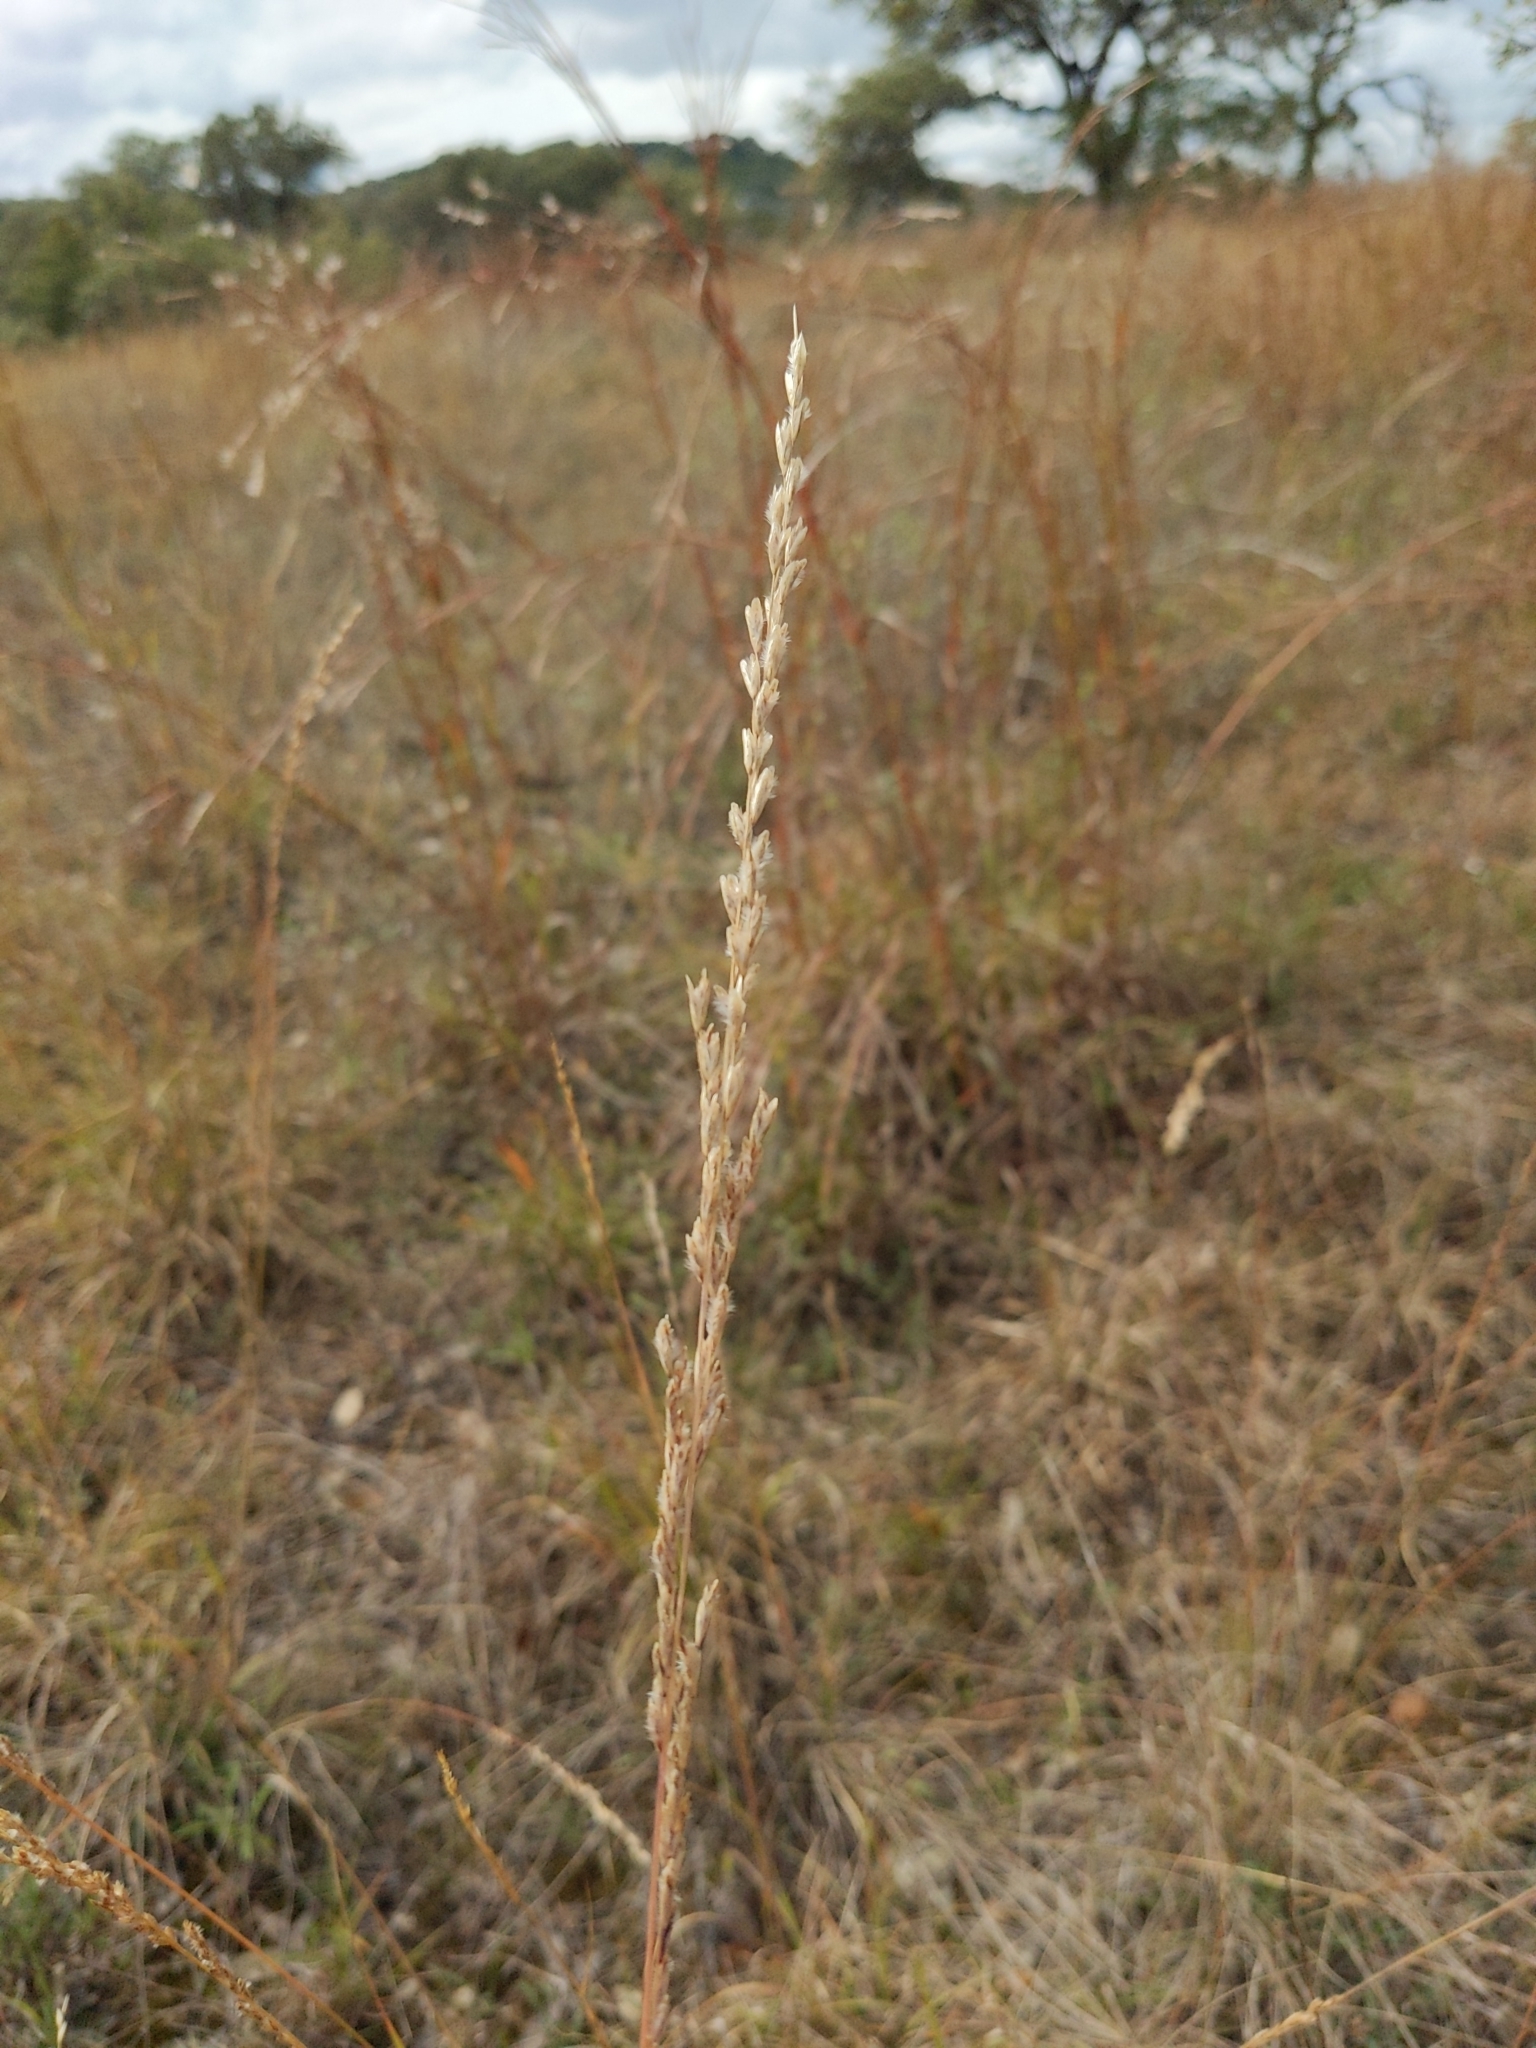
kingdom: Plantae
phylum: Tracheophyta
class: Liliopsida
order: Poales
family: Poaceae
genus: Tridentopsis
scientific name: Tridentopsis mutica
